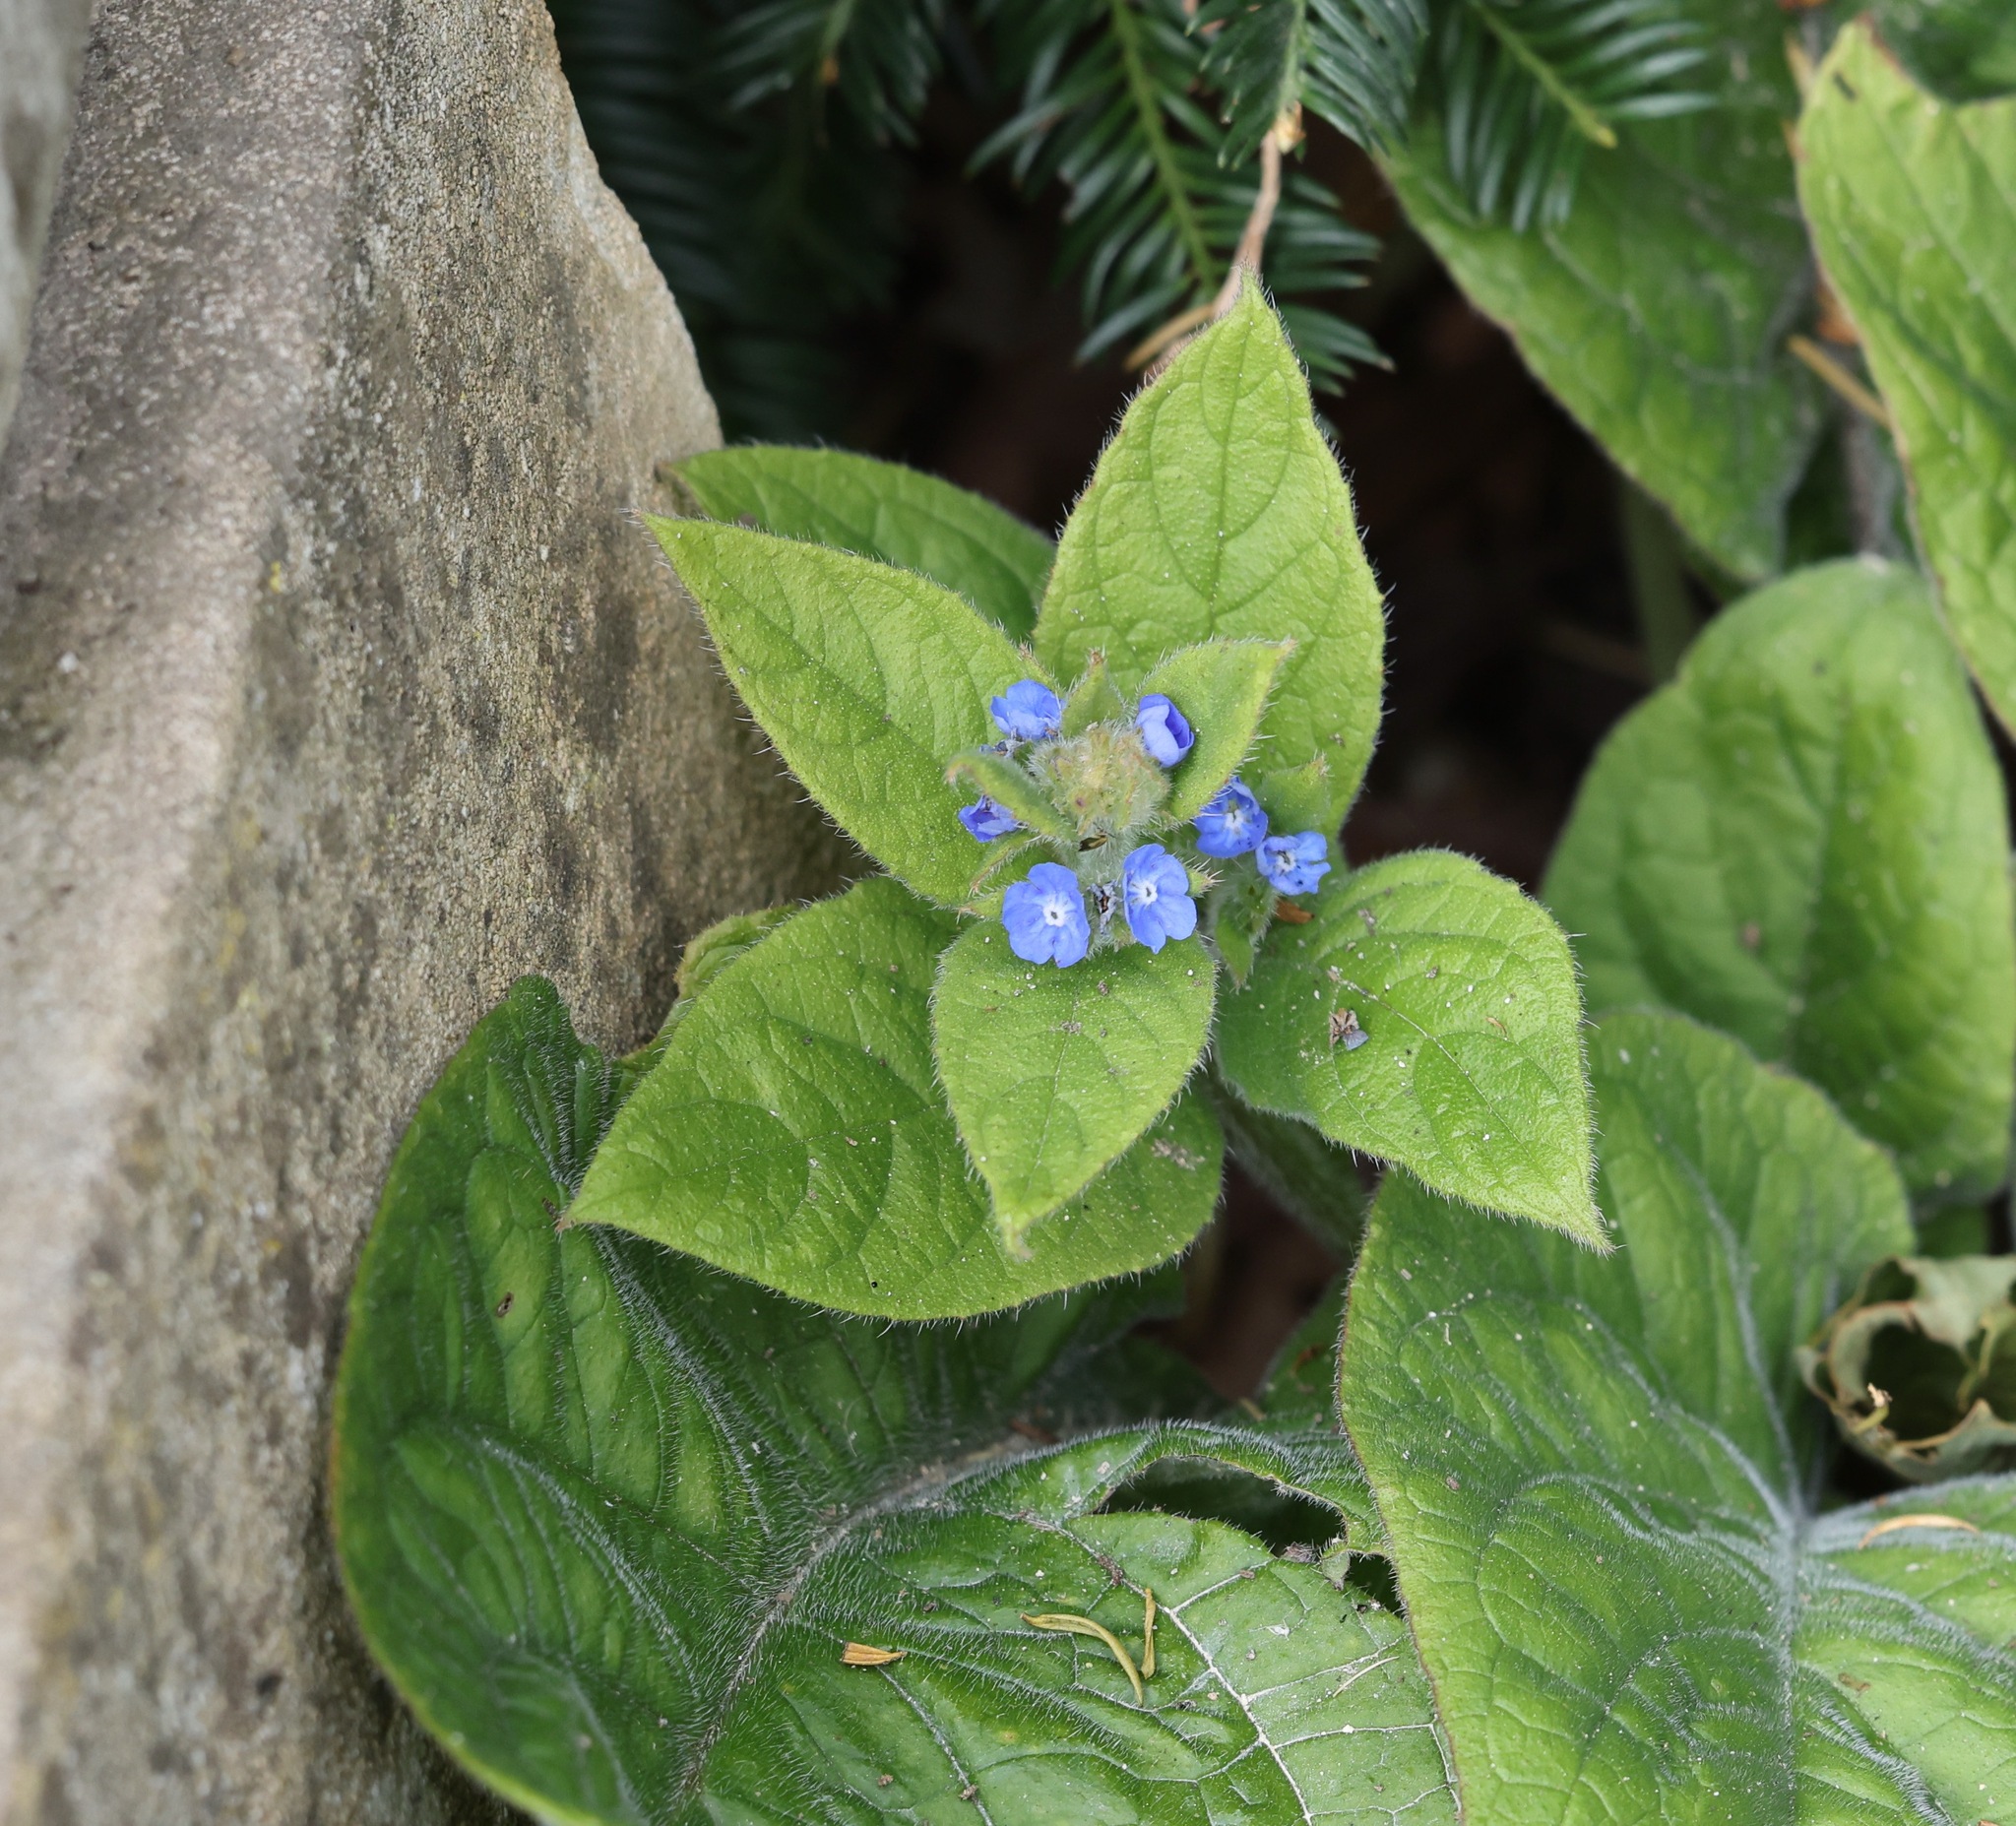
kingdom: Plantae
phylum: Tracheophyta
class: Magnoliopsida
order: Boraginales
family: Boraginaceae
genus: Pentaglottis
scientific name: Pentaglottis sempervirens
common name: Green alkanet
